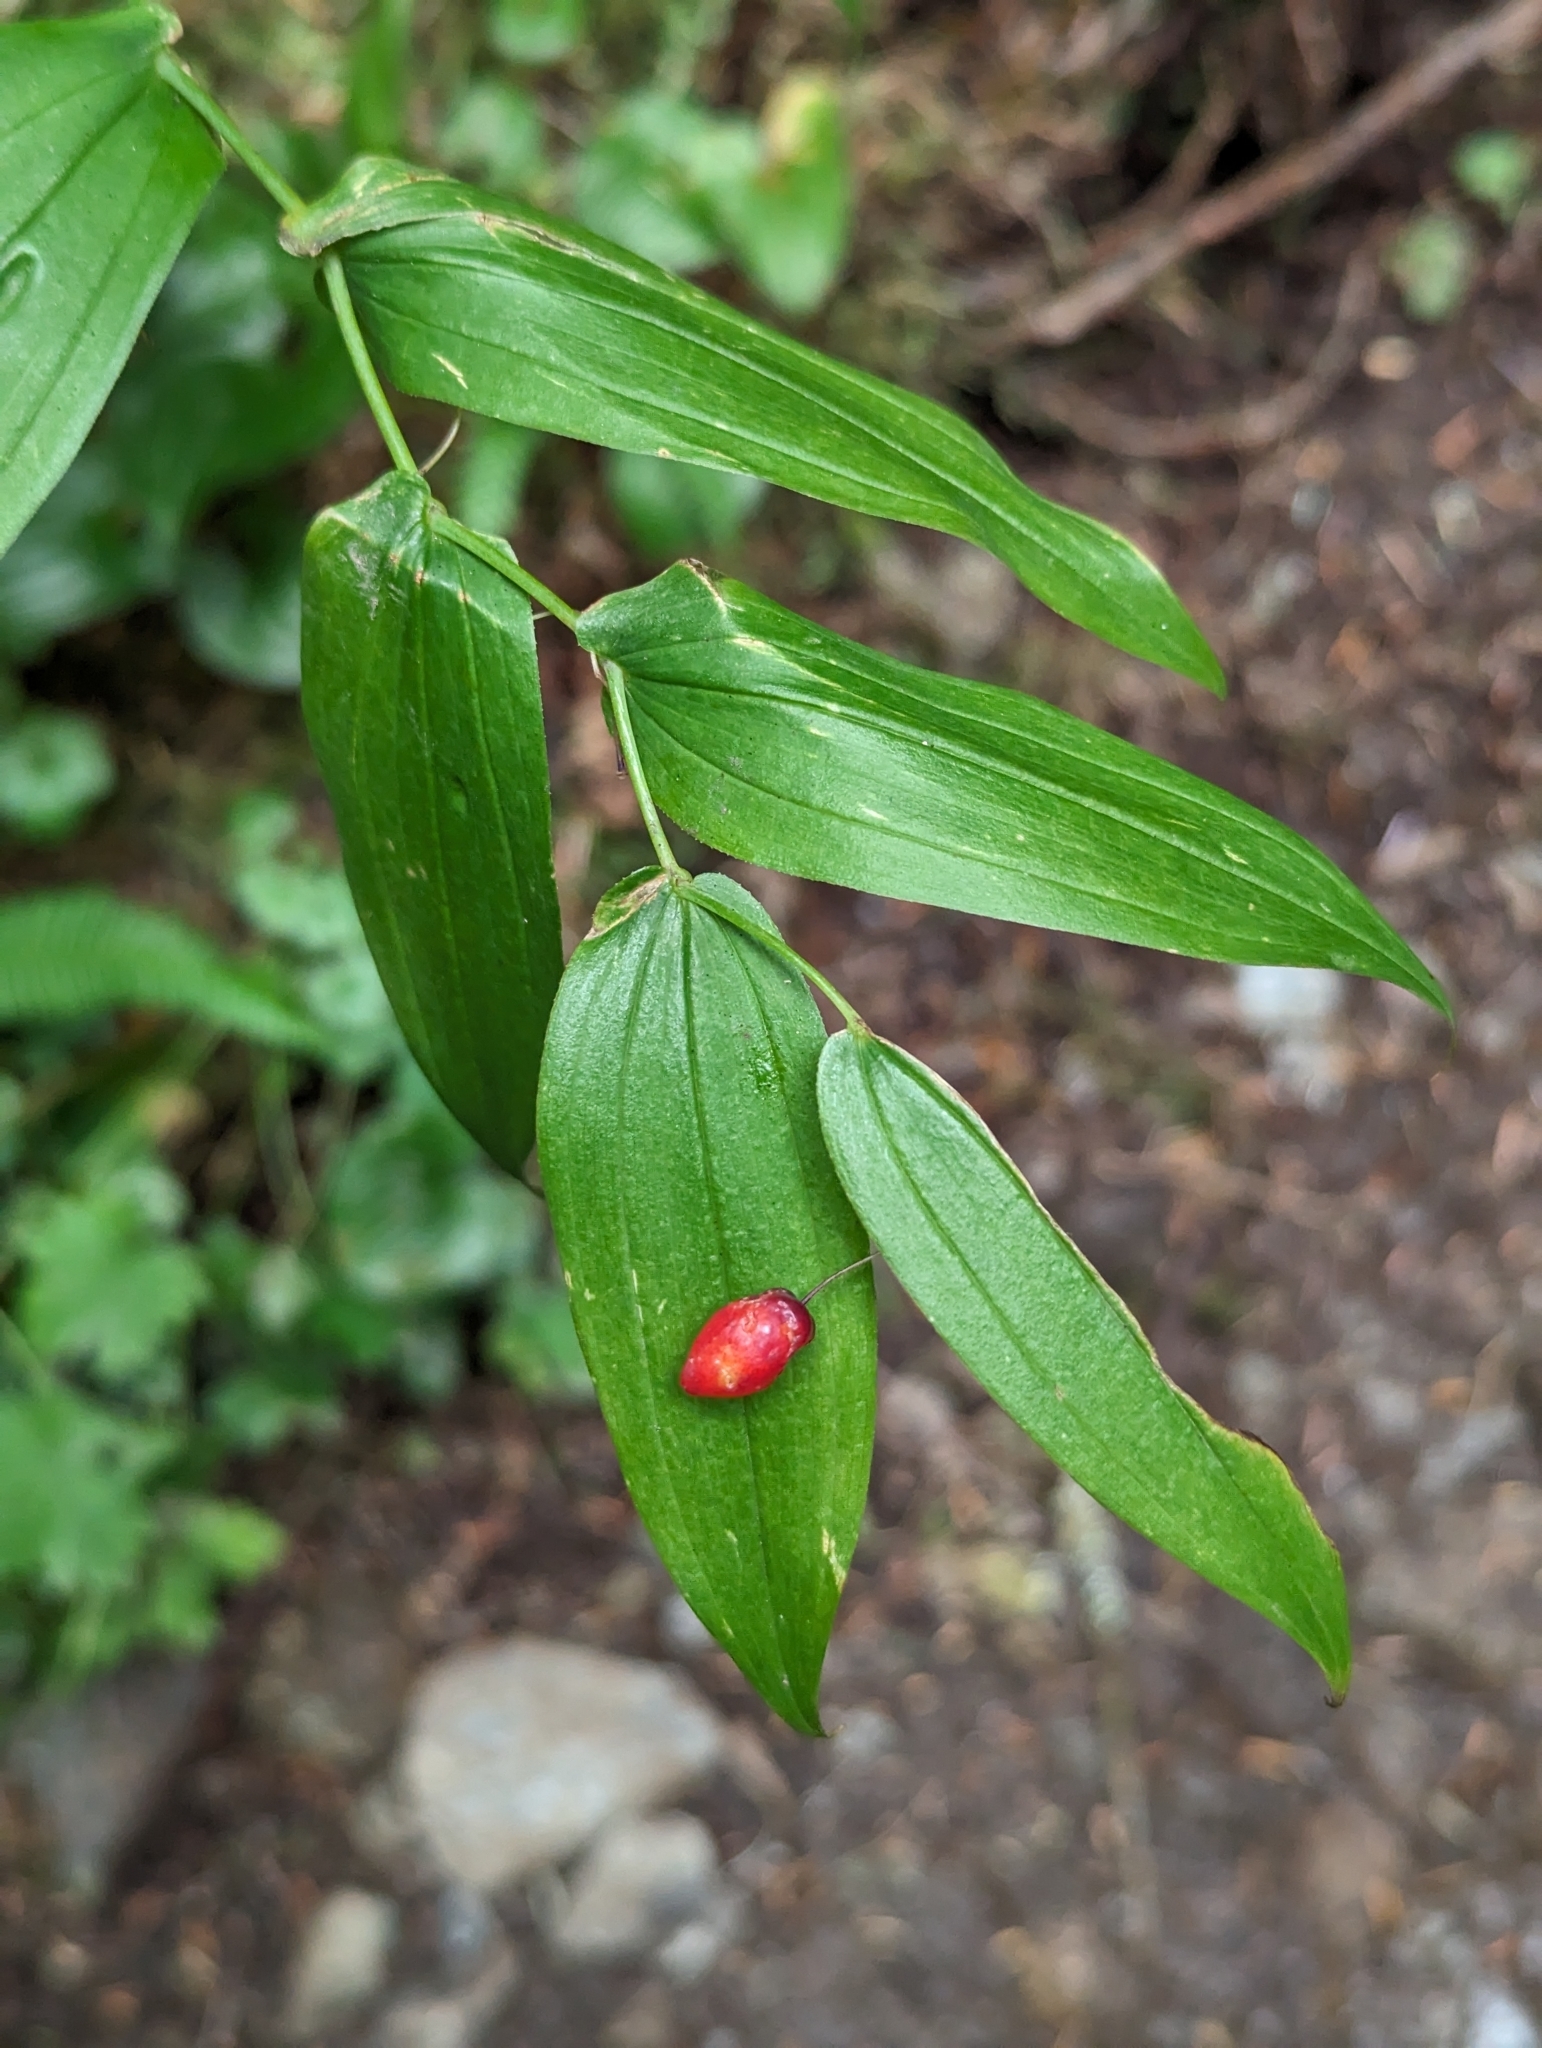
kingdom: Plantae
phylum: Tracheophyta
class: Liliopsida
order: Liliales
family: Liliaceae
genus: Streptopus
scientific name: Streptopus amplexifolius
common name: Clasp twisted stalk
